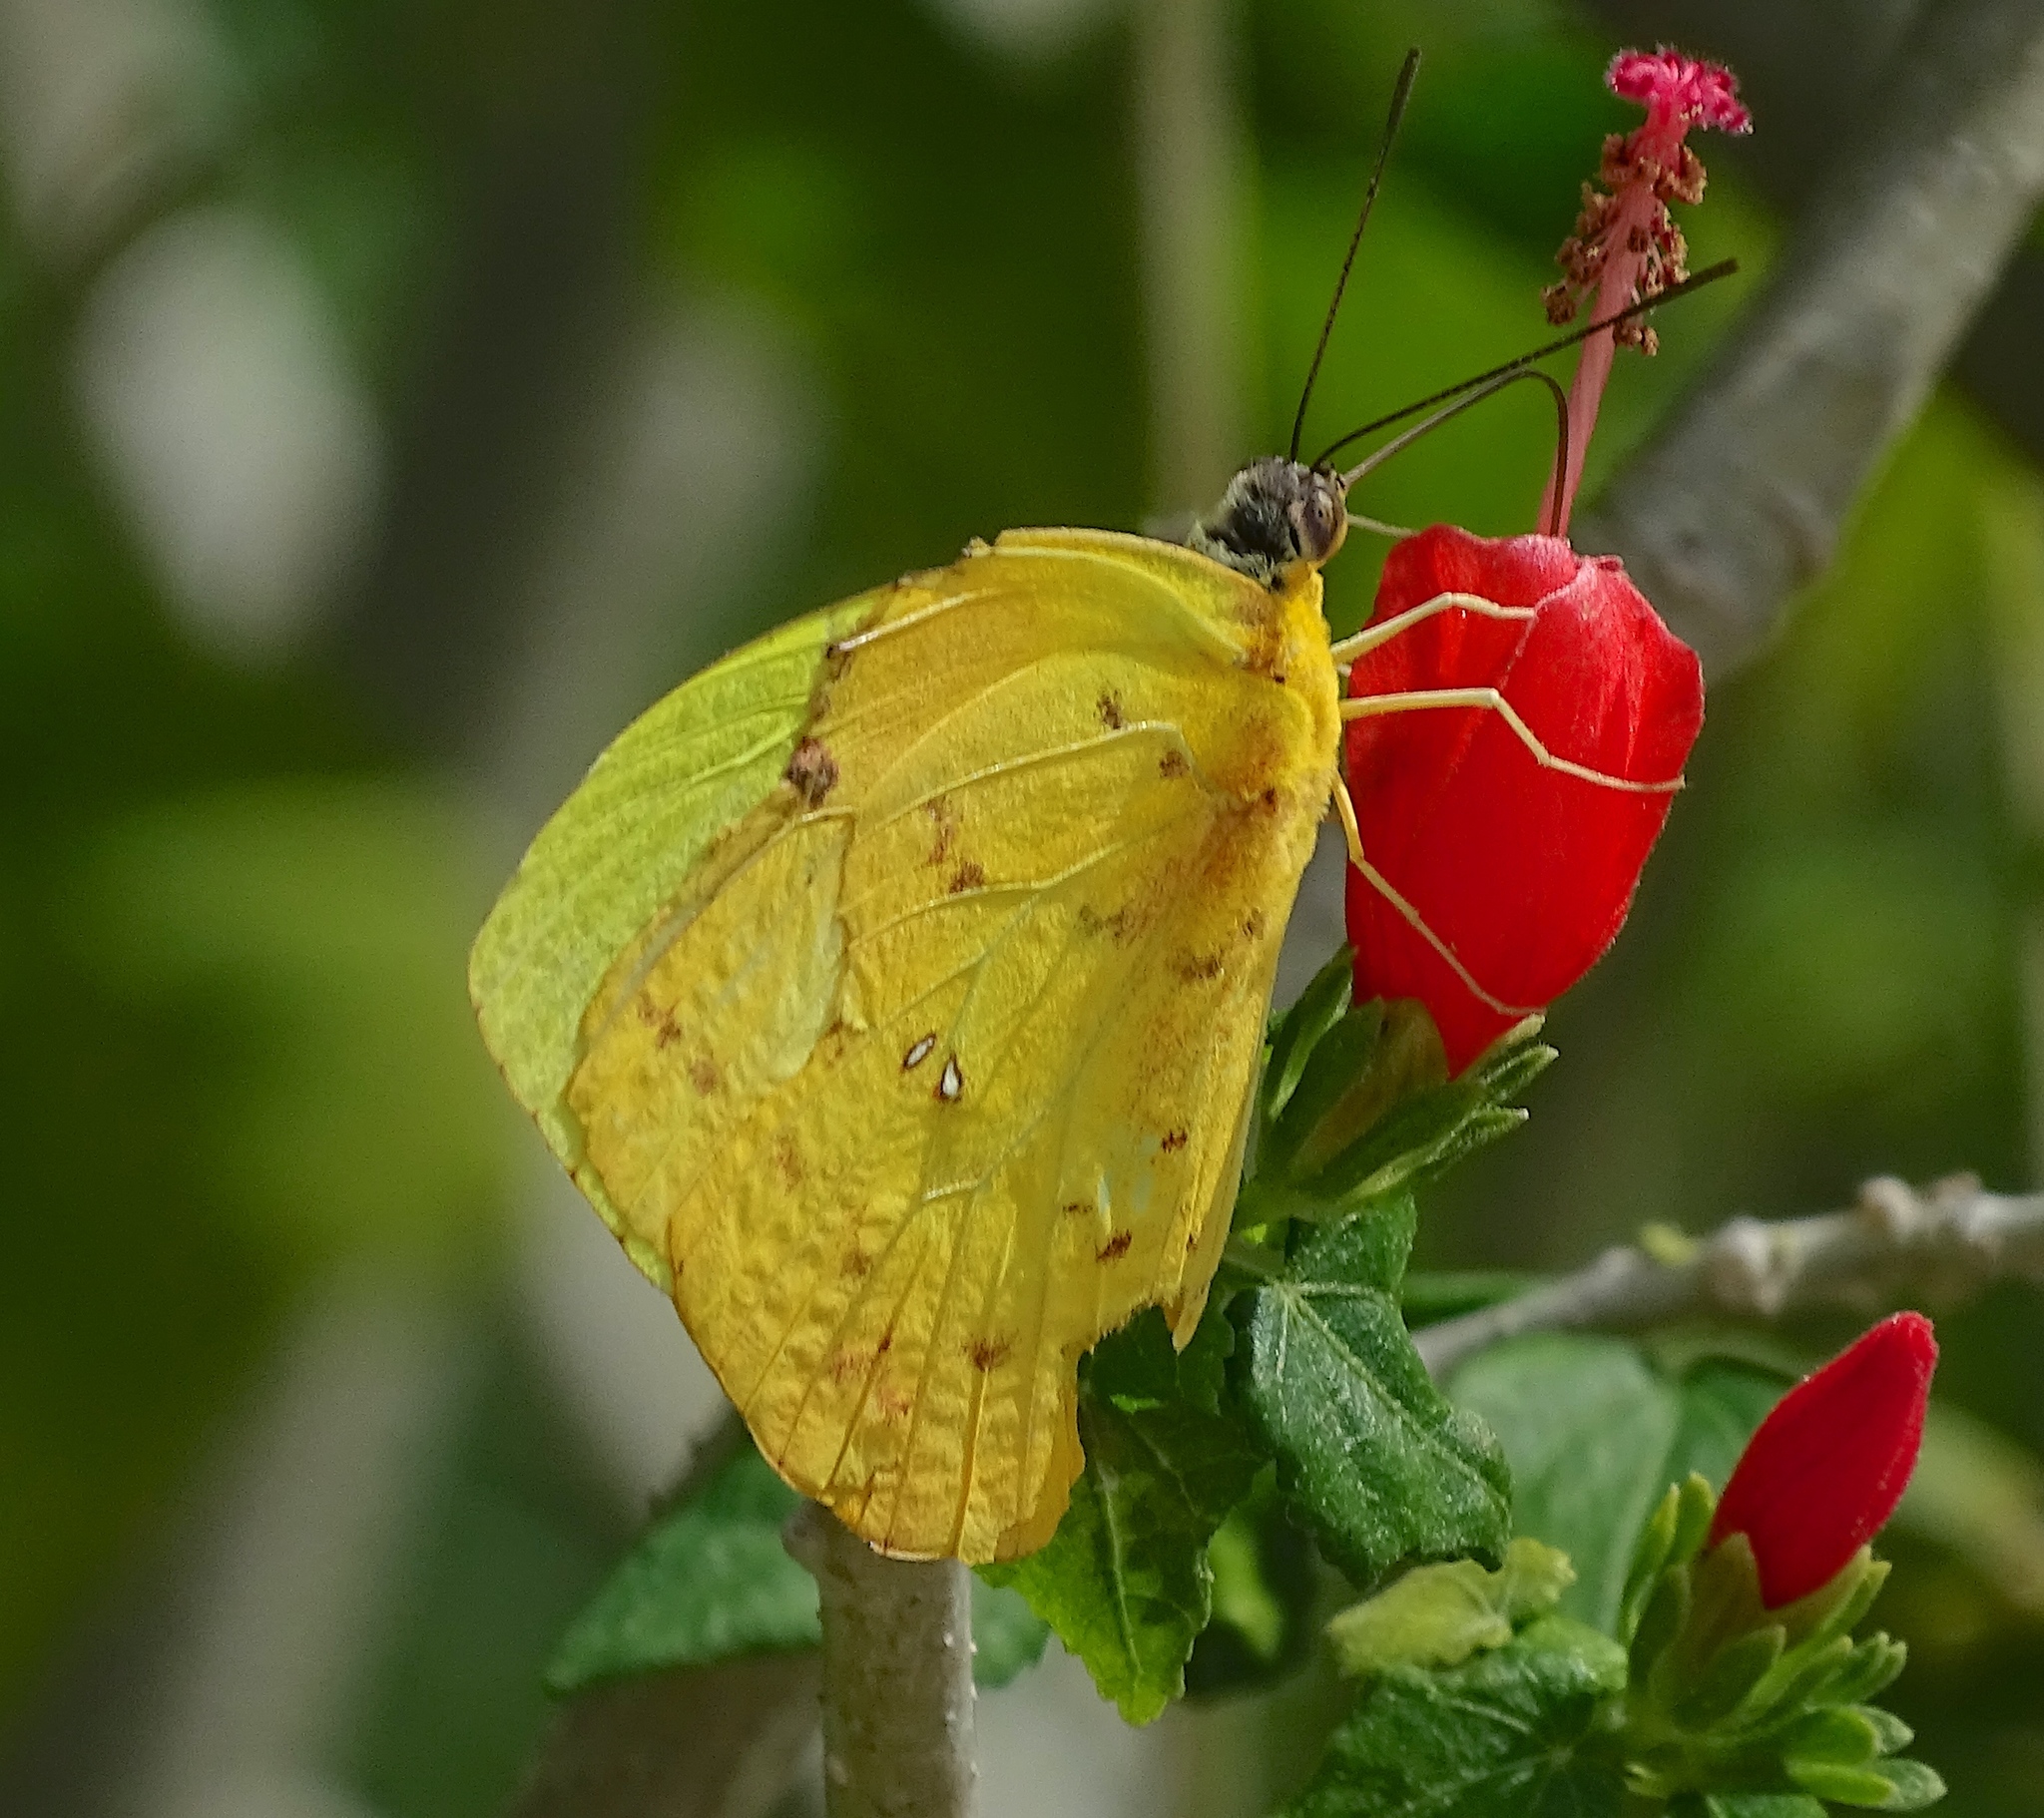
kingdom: Animalia
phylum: Arthropoda
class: Insecta
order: Lepidoptera
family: Pieridae
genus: Phoebis
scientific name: Phoebis philea
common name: Orange-barred giant sulphur
